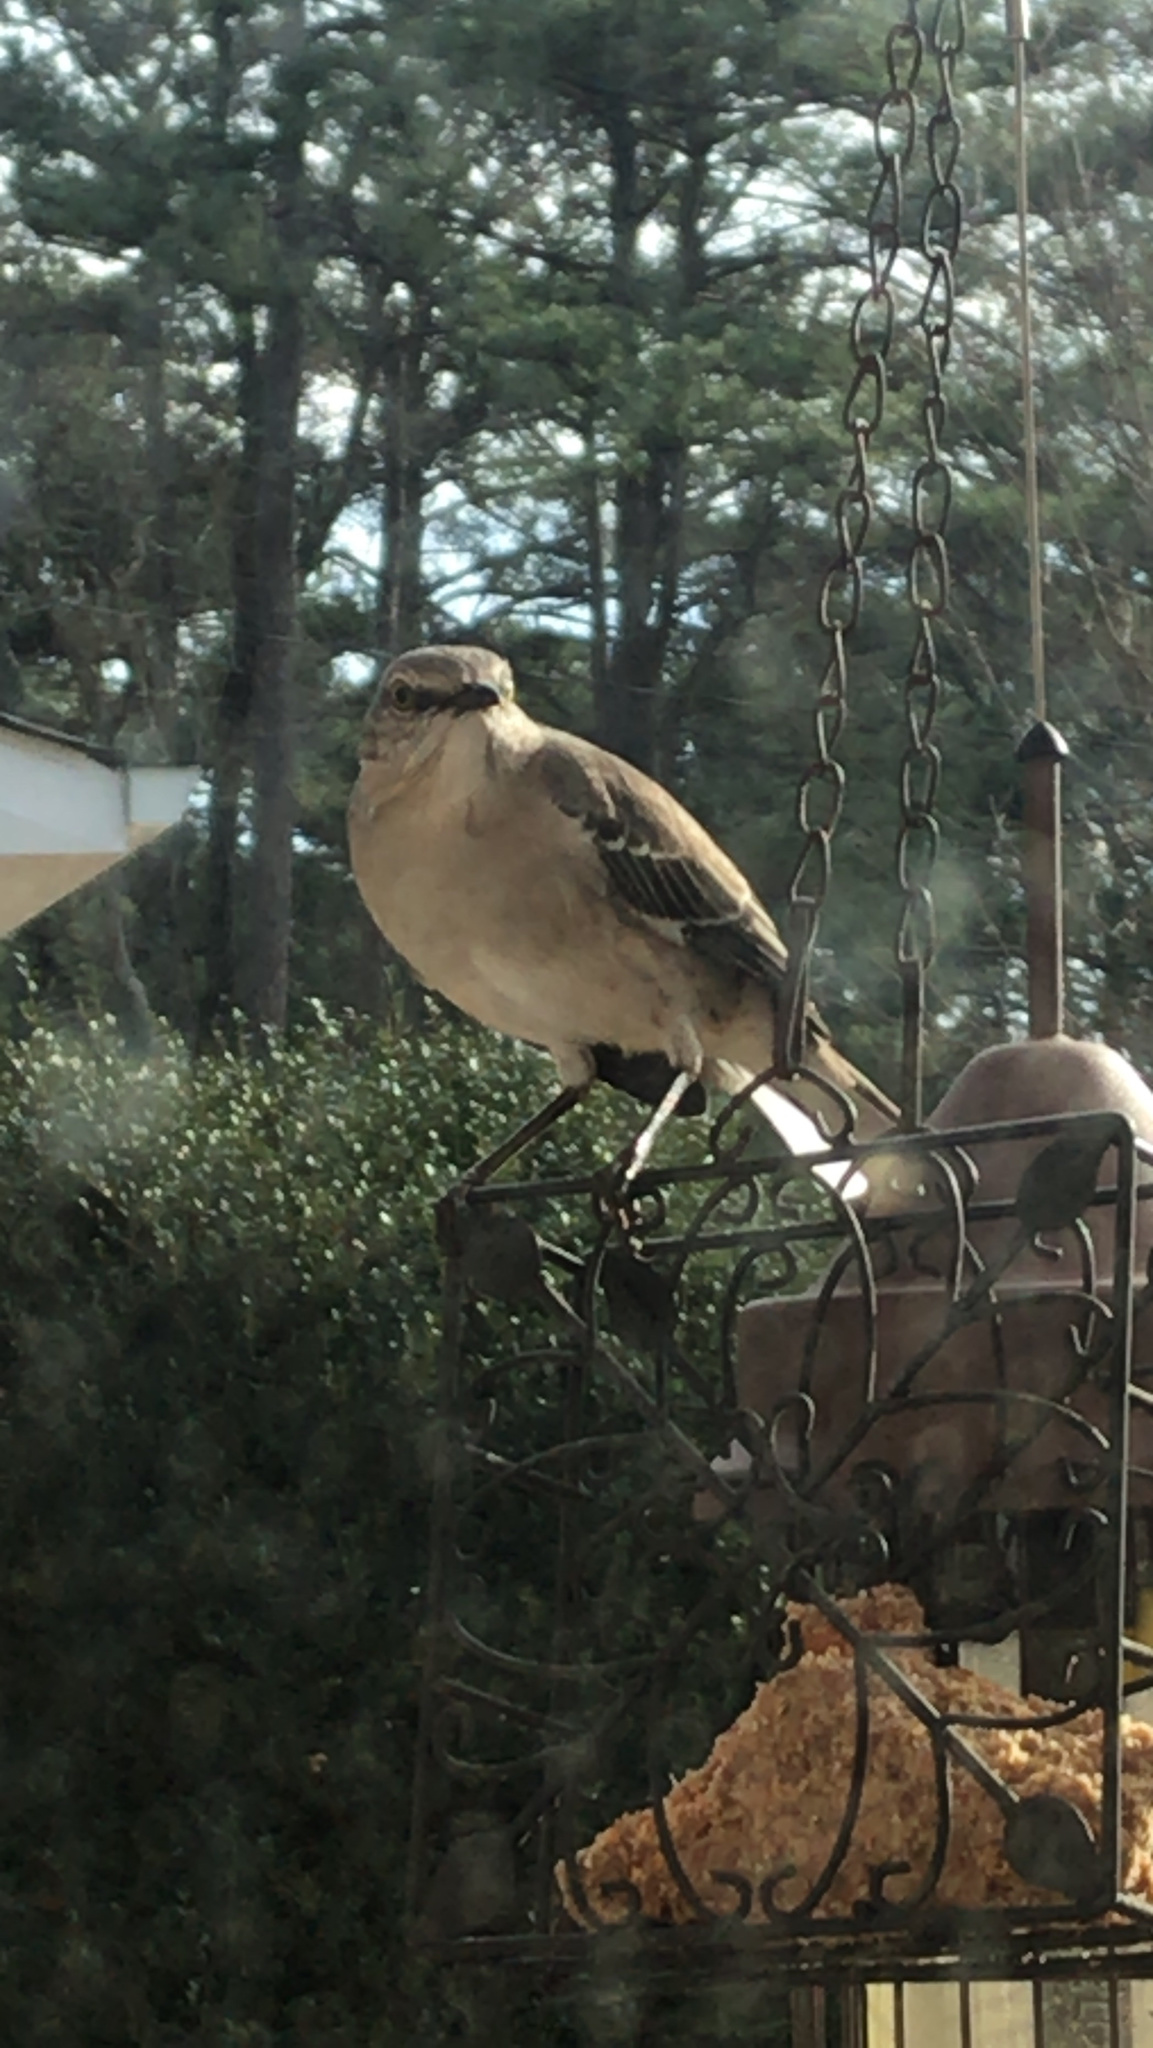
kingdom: Animalia
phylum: Chordata
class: Aves
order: Passeriformes
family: Mimidae
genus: Mimus
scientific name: Mimus polyglottos
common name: Northern mockingbird
